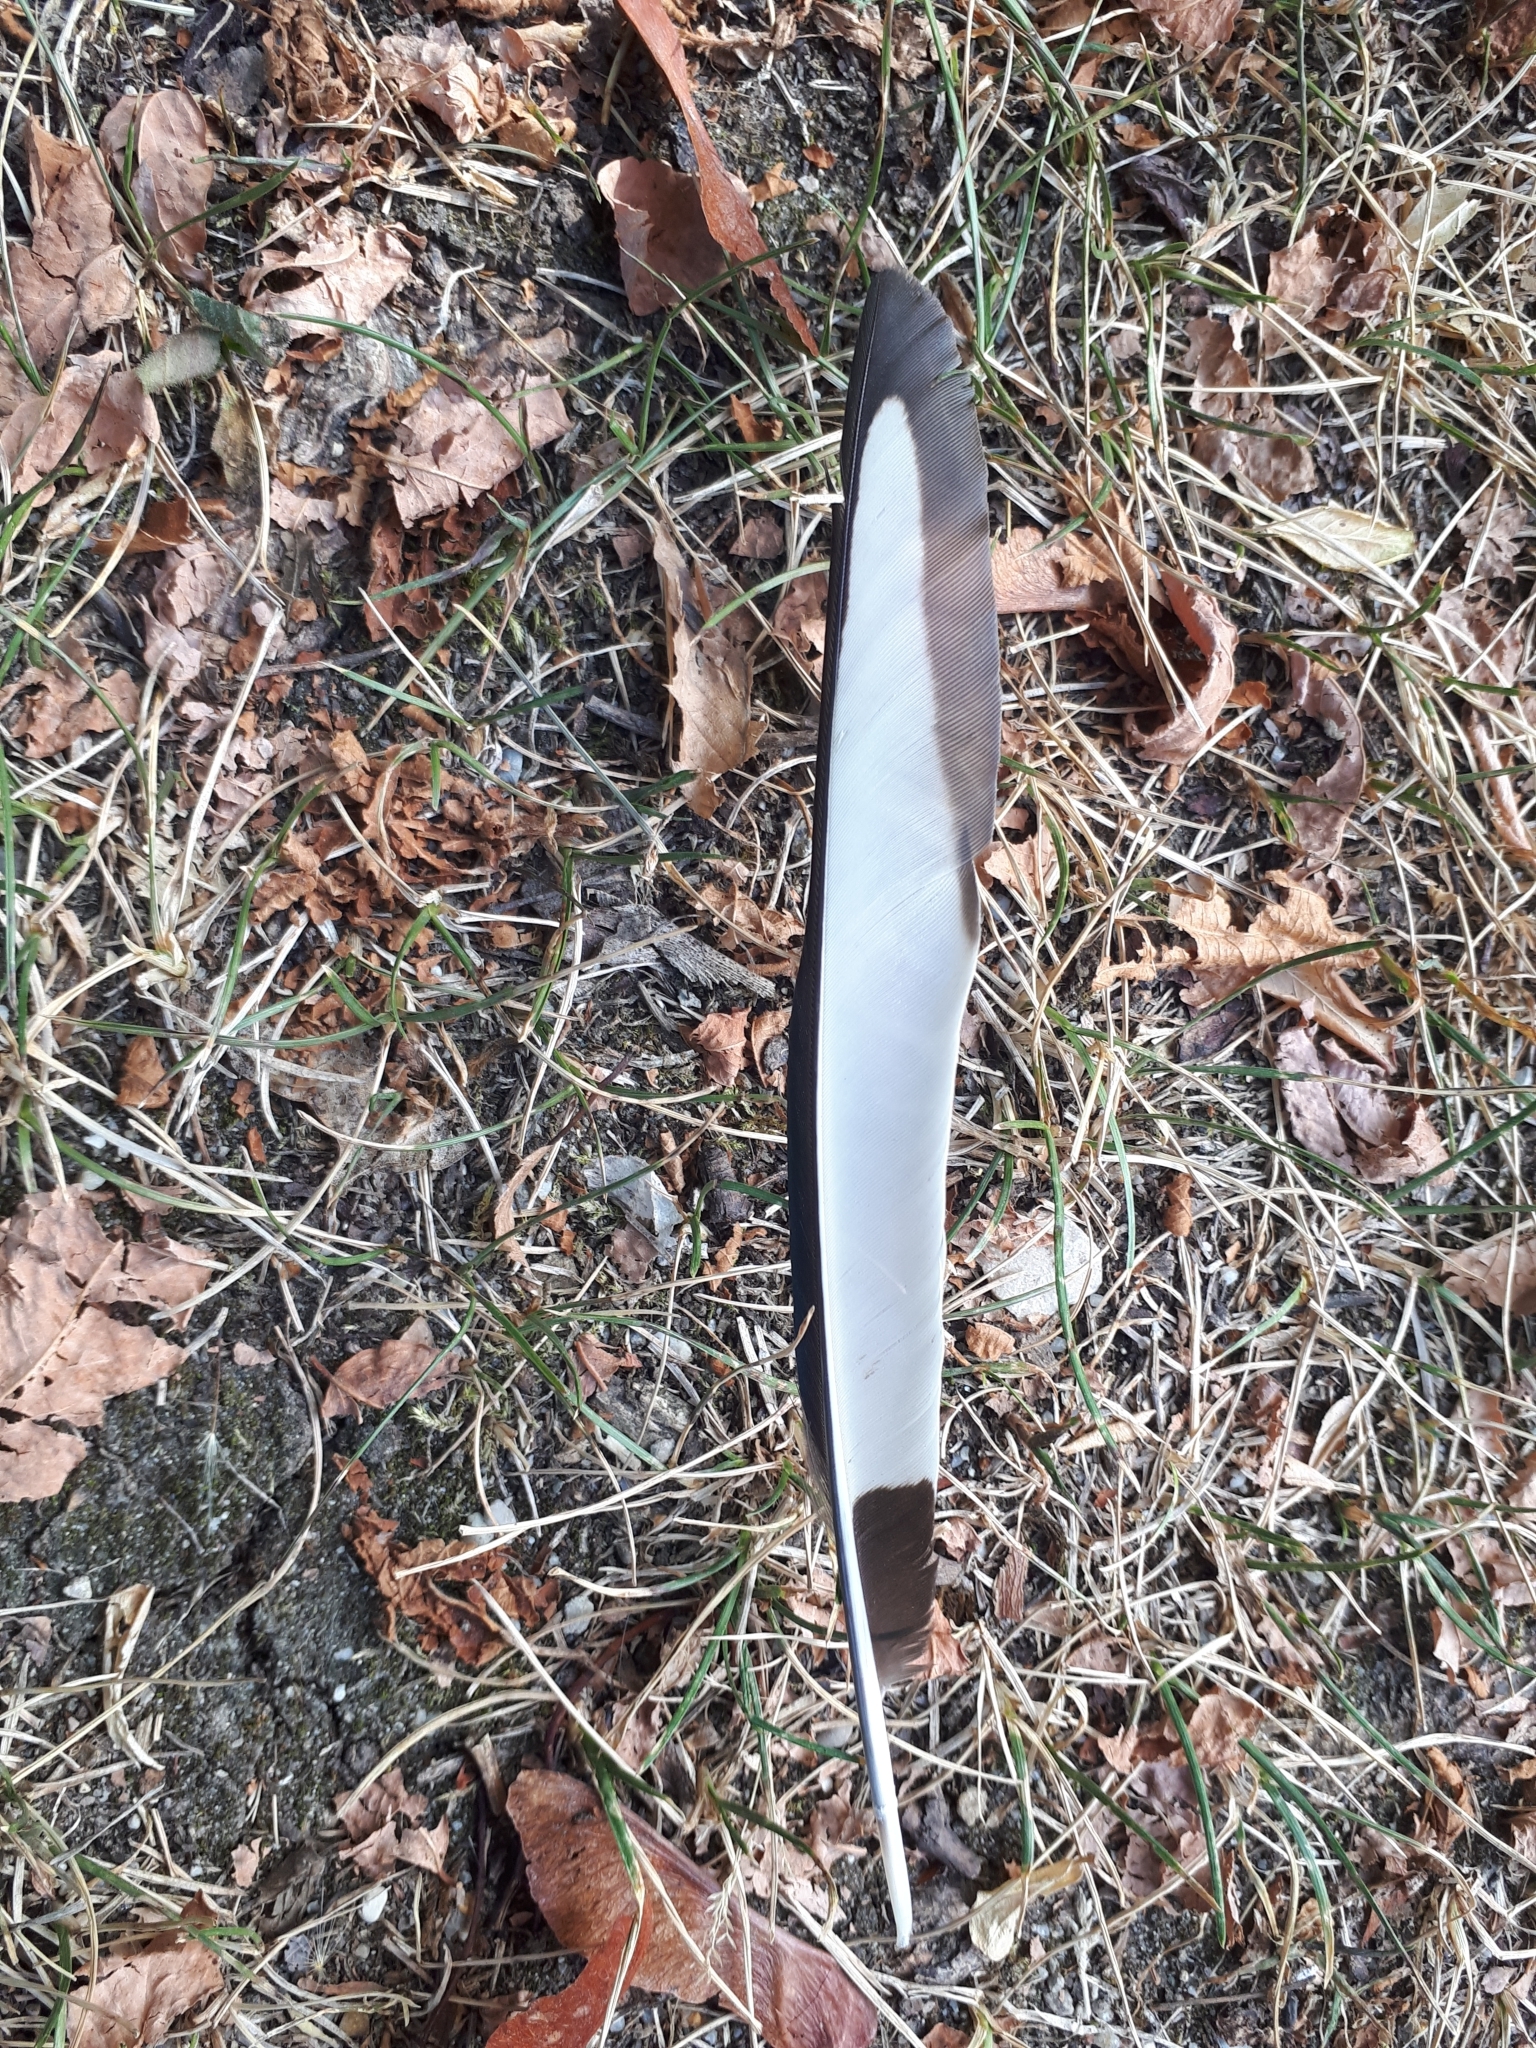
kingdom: Animalia
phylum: Chordata
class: Aves
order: Passeriformes
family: Corvidae
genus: Pica
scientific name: Pica pica
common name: Eurasian magpie
